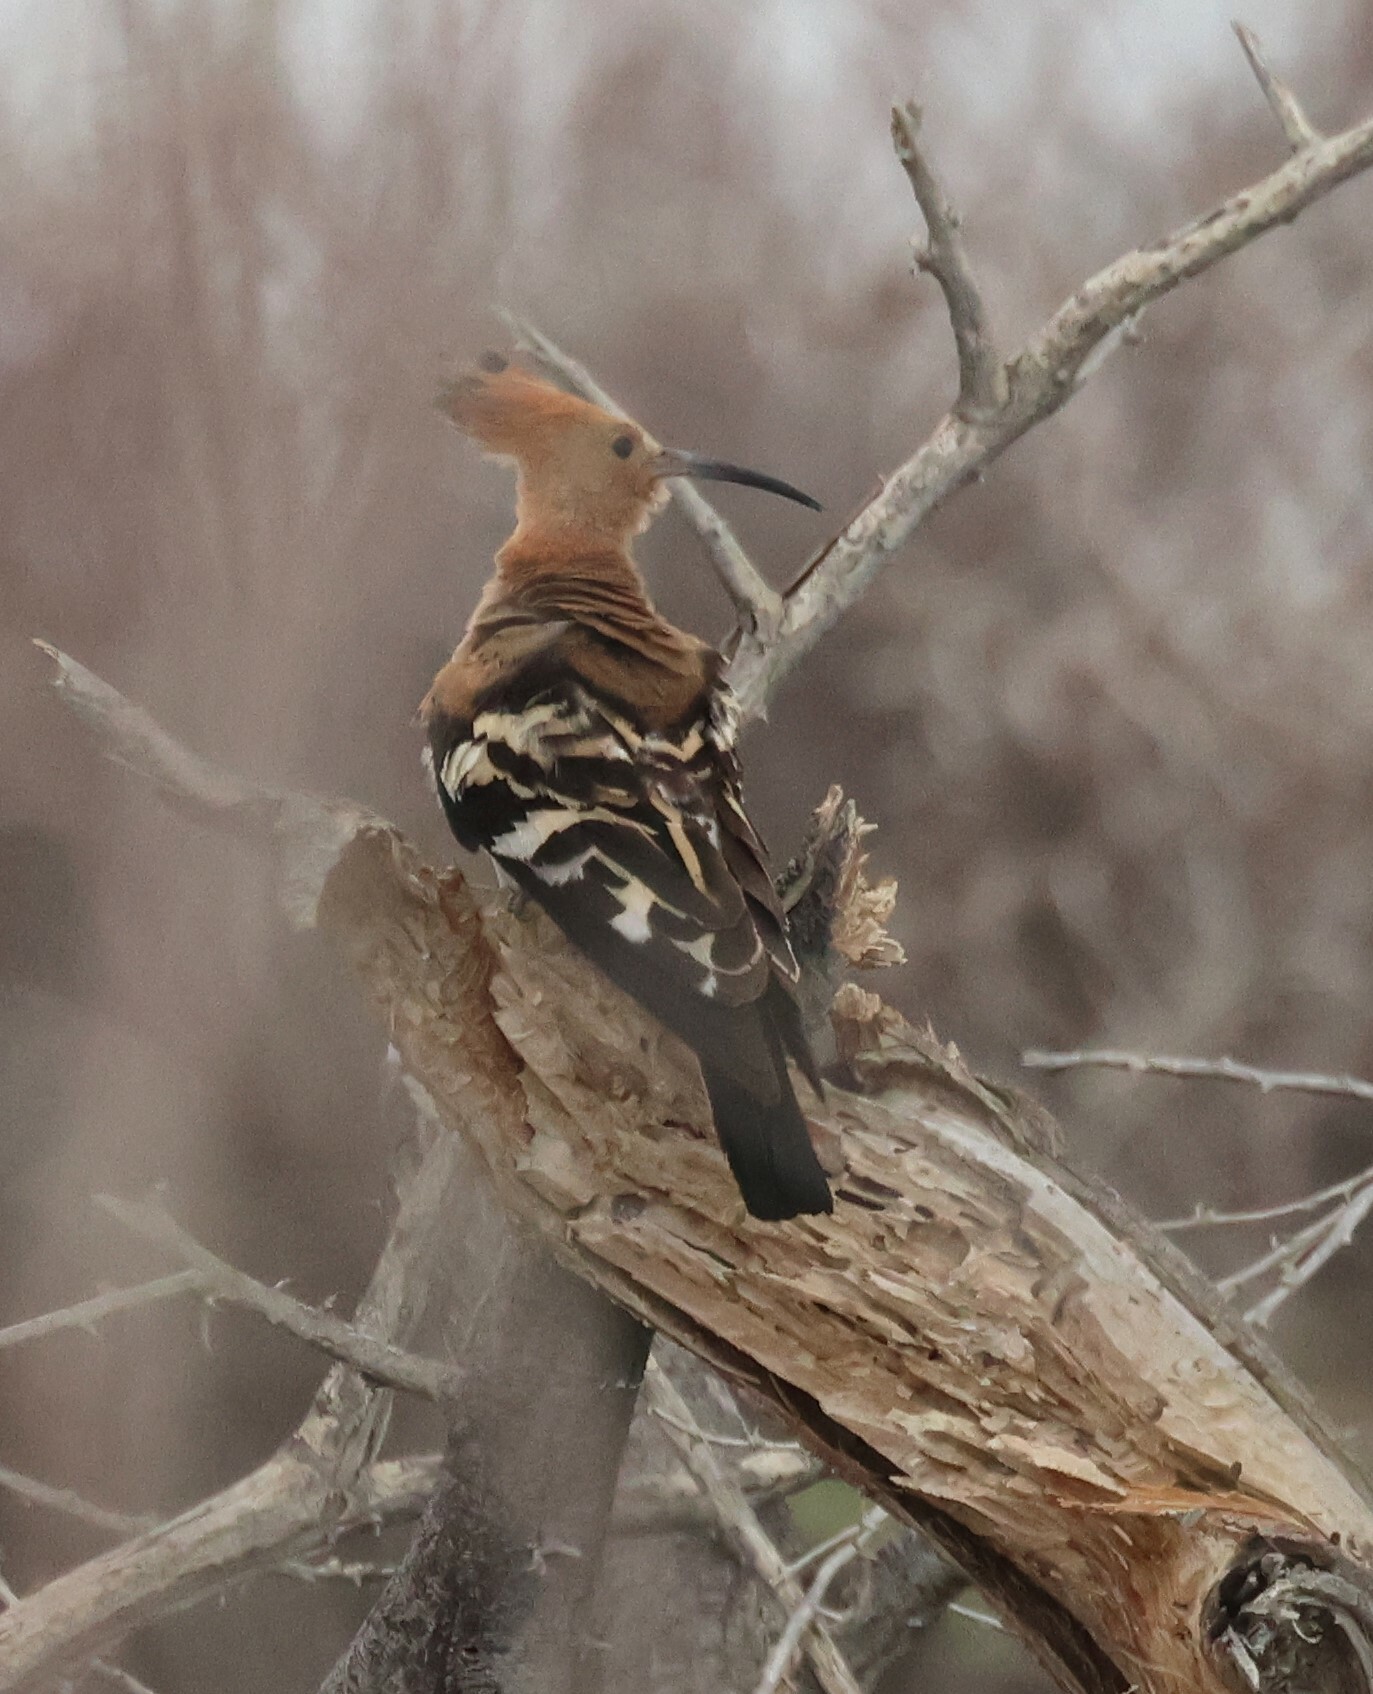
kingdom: Animalia
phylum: Chordata
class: Aves
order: Bucerotiformes
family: Upupidae
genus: Upupa
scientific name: Upupa africana
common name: African hoopoe
